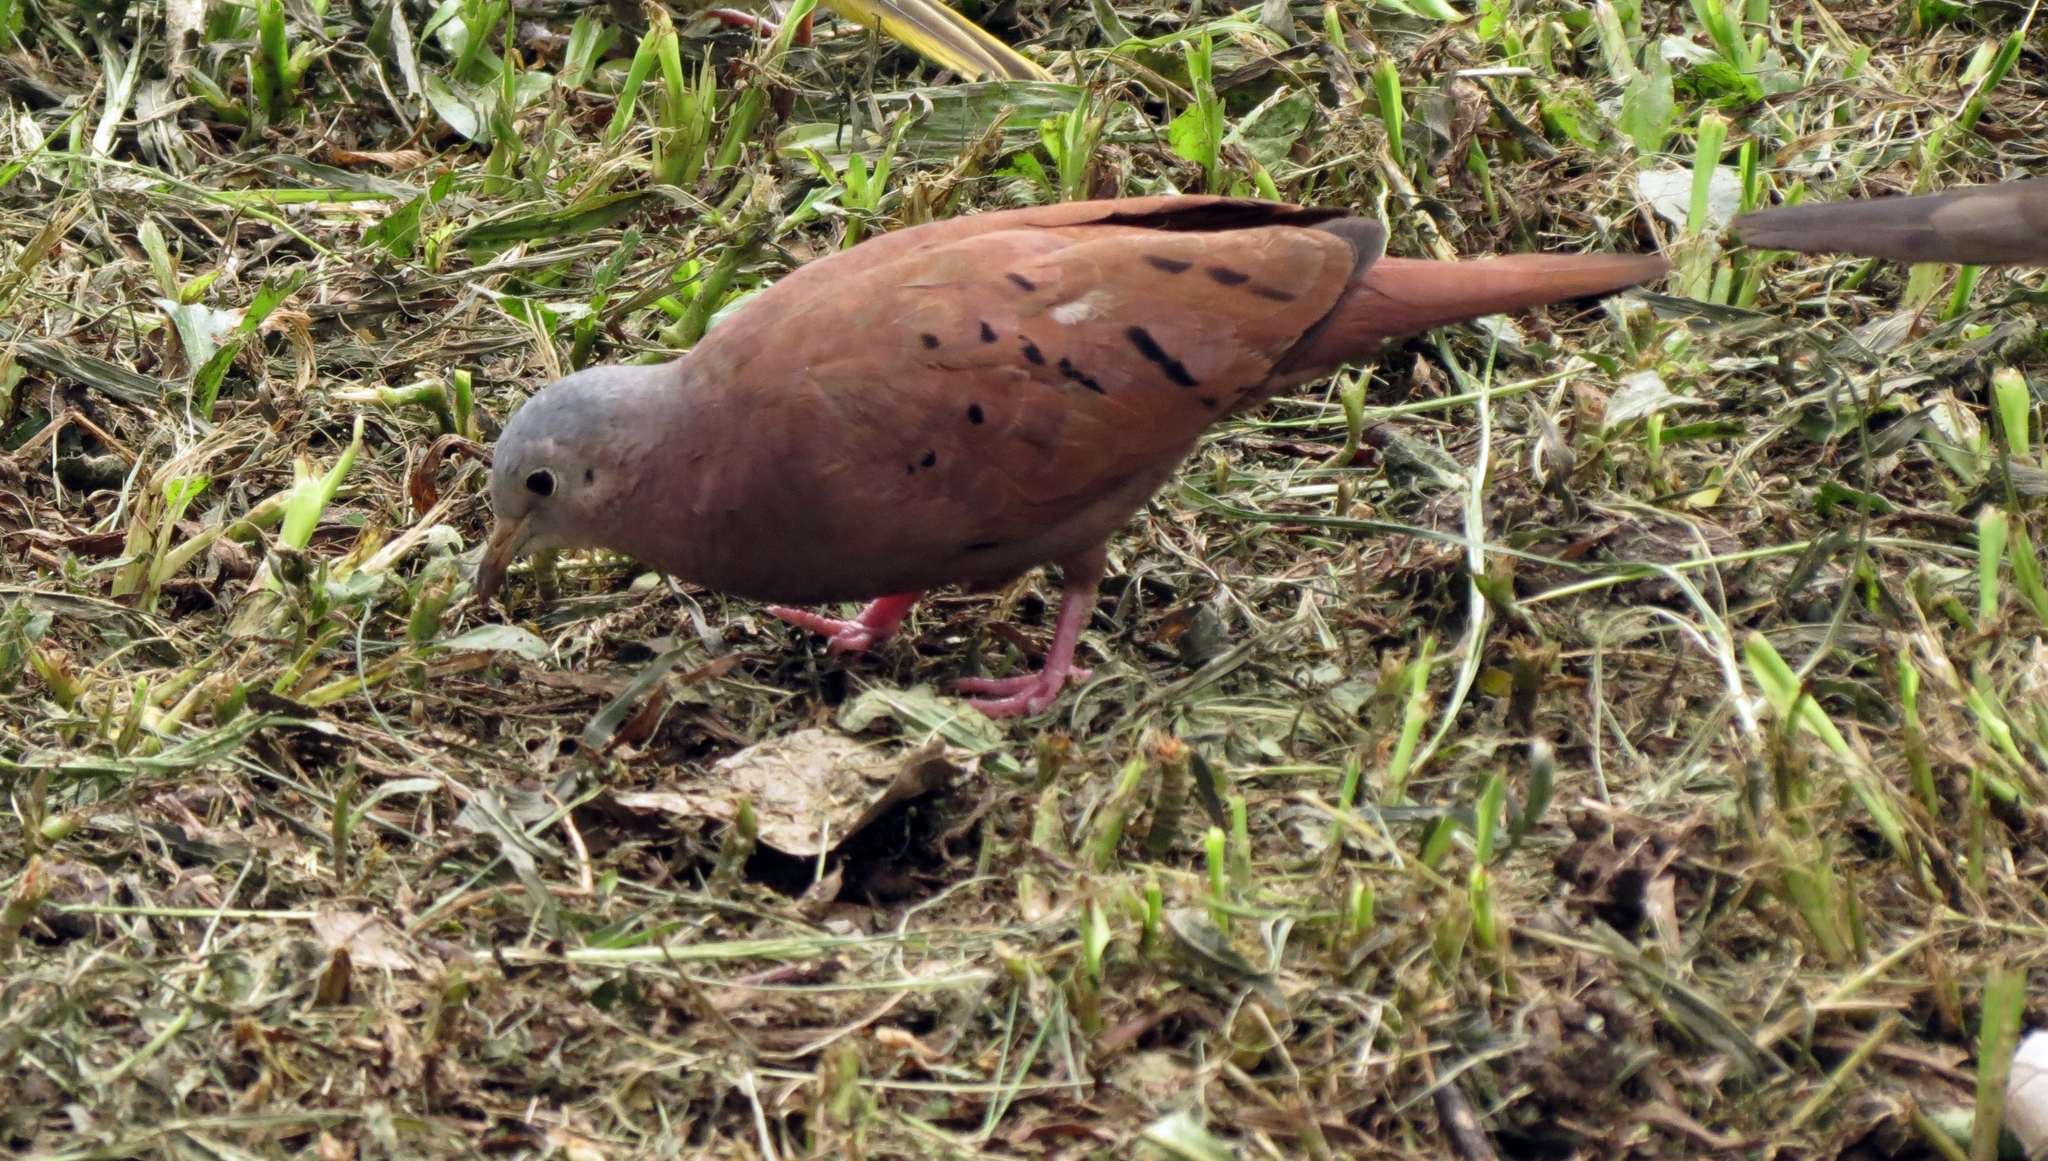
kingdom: Animalia
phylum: Chordata
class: Aves
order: Columbiformes
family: Columbidae
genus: Columbina
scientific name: Columbina talpacoti
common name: Ruddy ground dove
